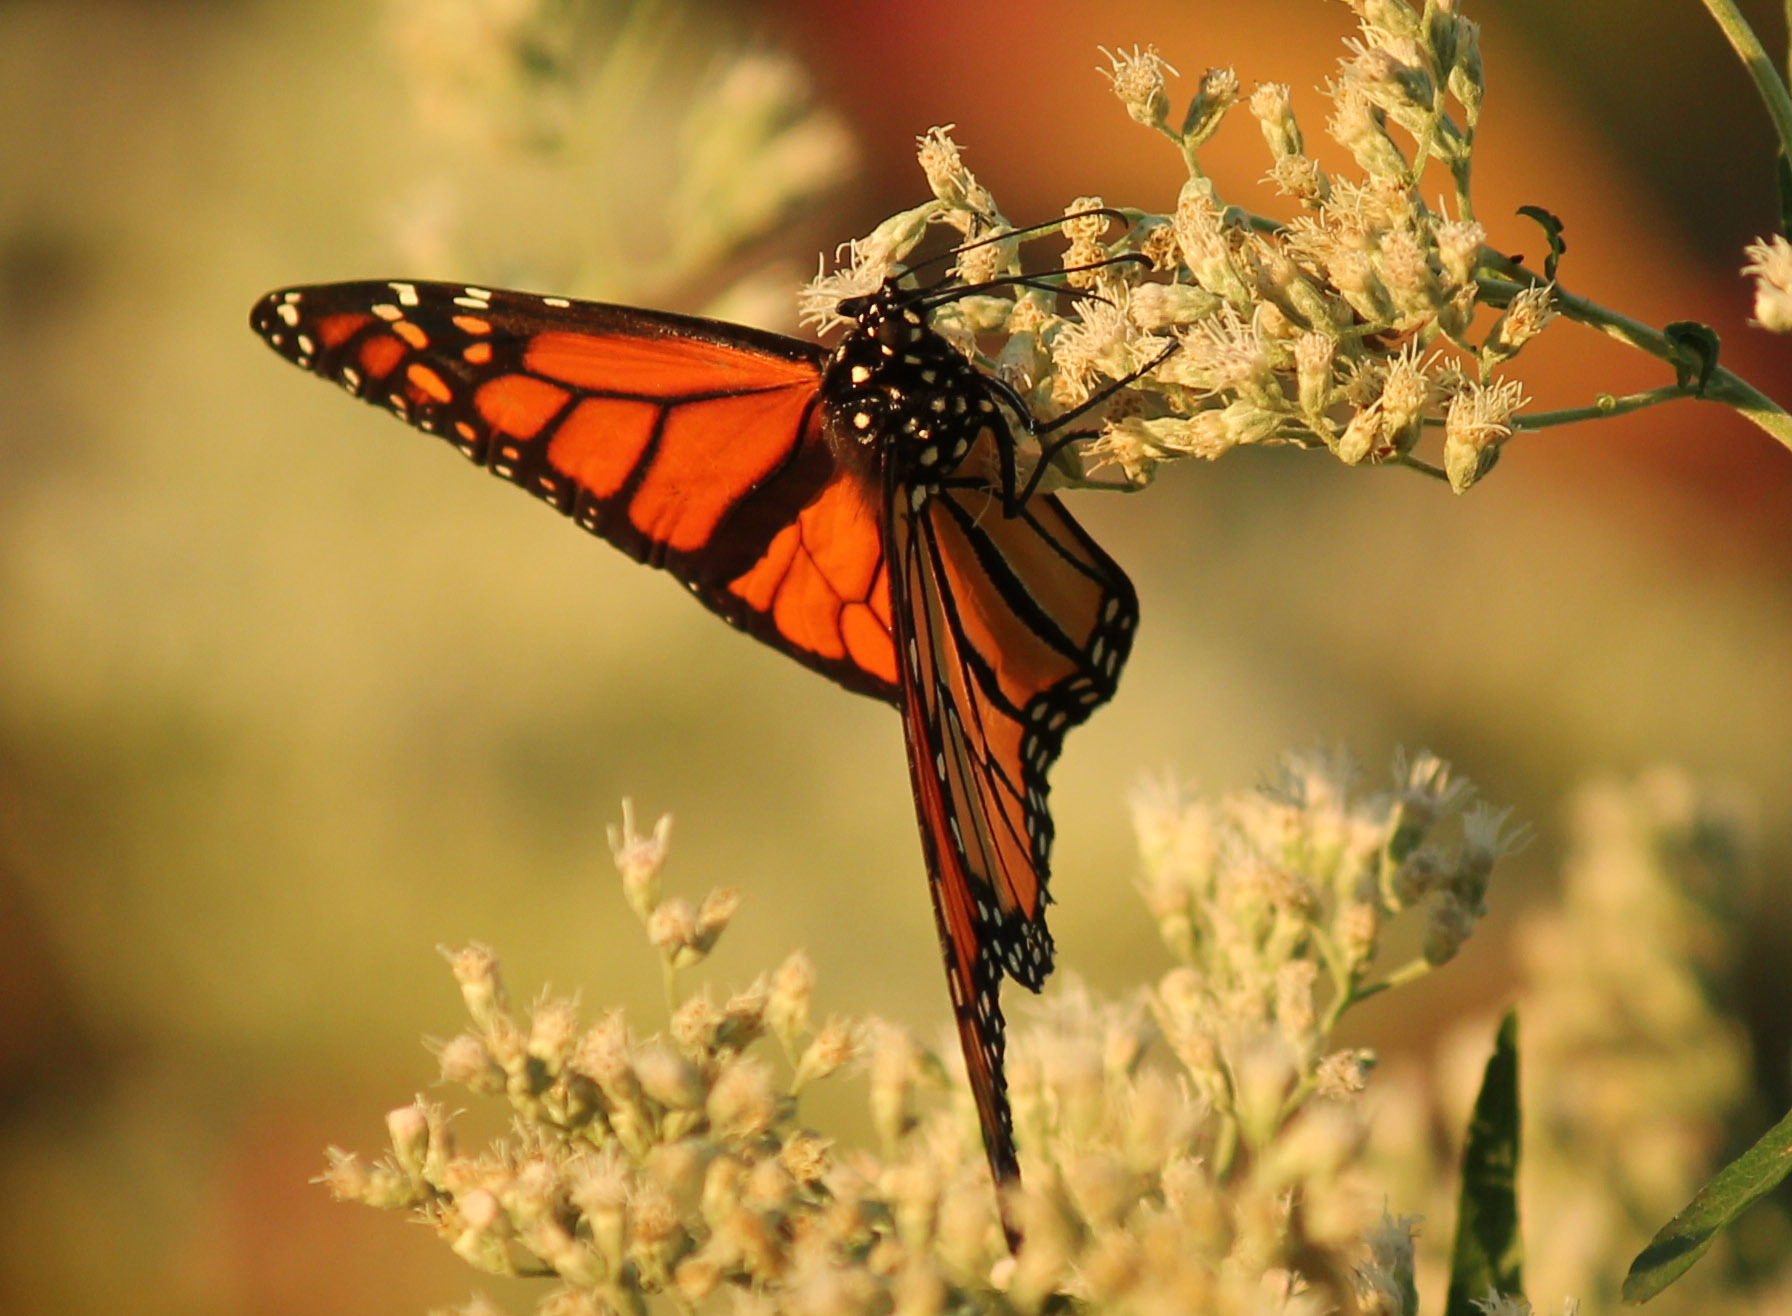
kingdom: Animalia
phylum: Arthropoda
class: Insecta
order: Lepidoptera
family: Nymphalidae
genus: Danaus
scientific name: Danaus plexippus
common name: Monarch
